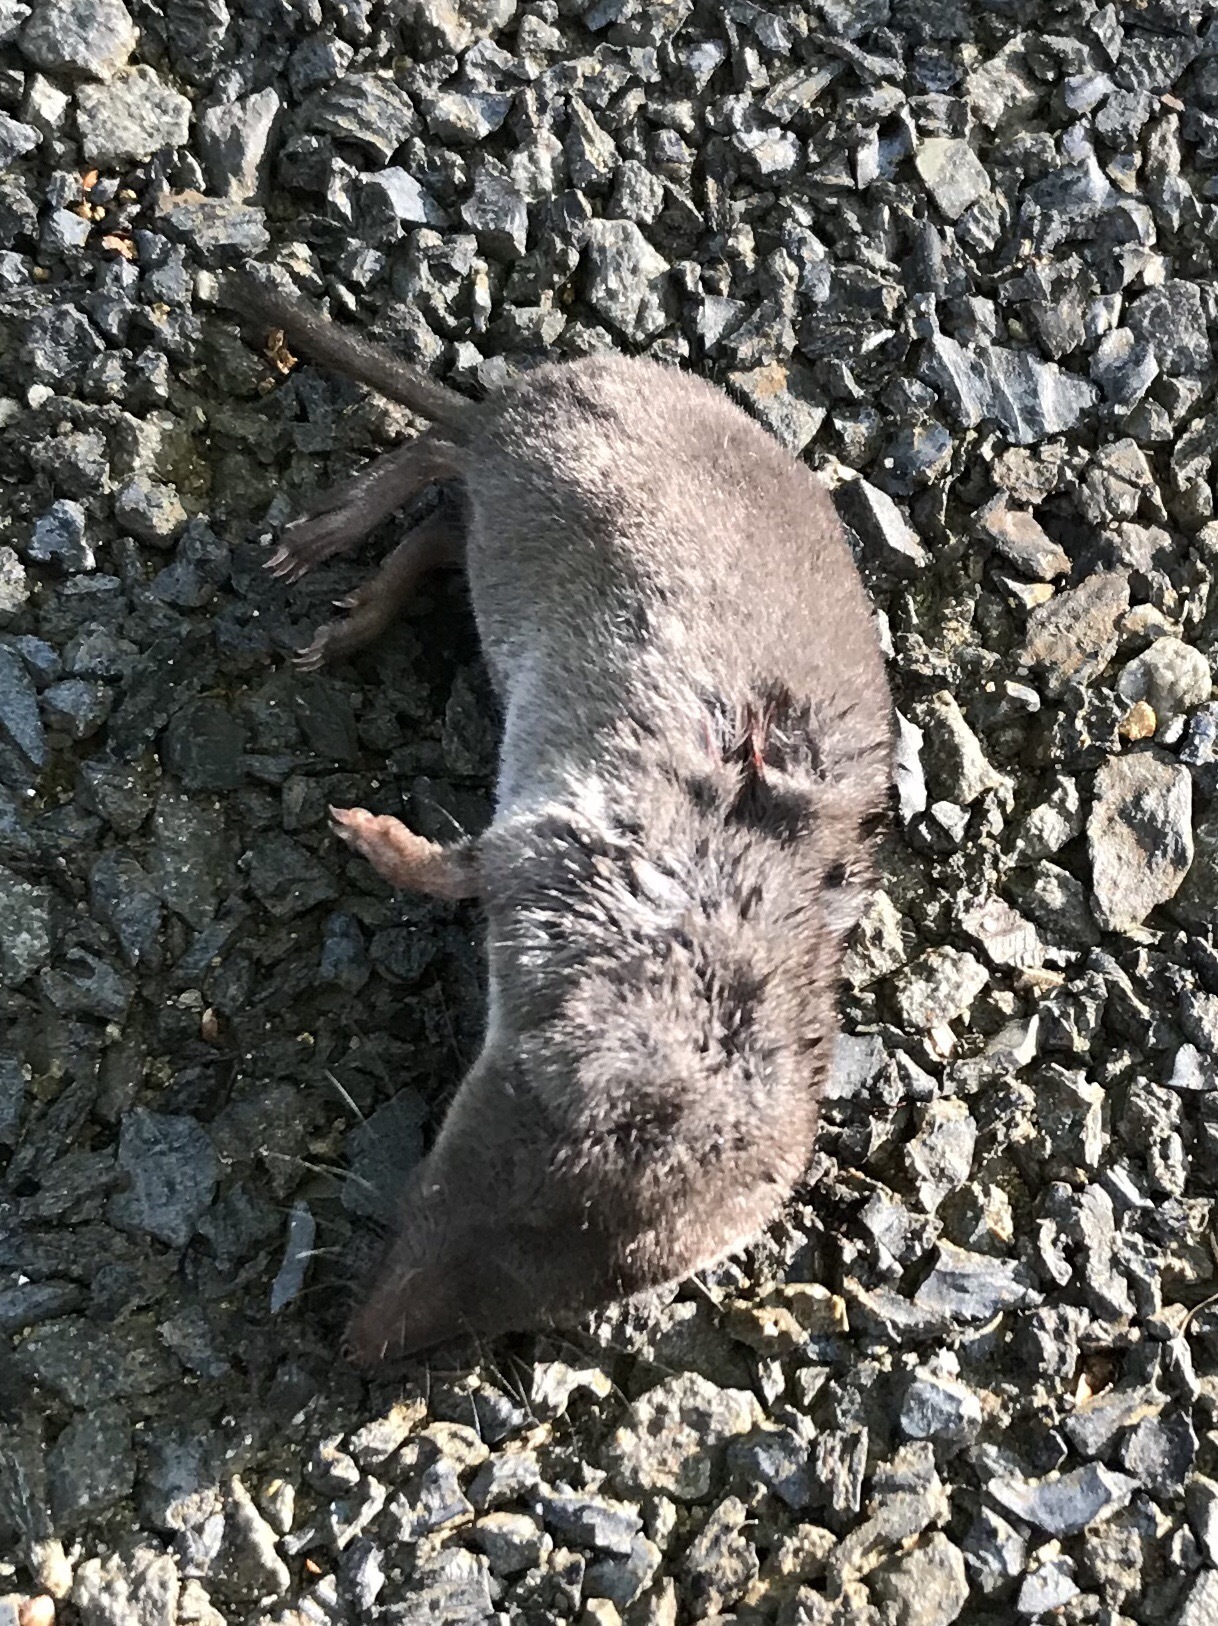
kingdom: Animalia
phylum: Chordata
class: Mammalia
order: Soricomorpha
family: Soricidae
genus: Blarina
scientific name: Blarina brevicauda
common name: Northern short-tailed shrew
